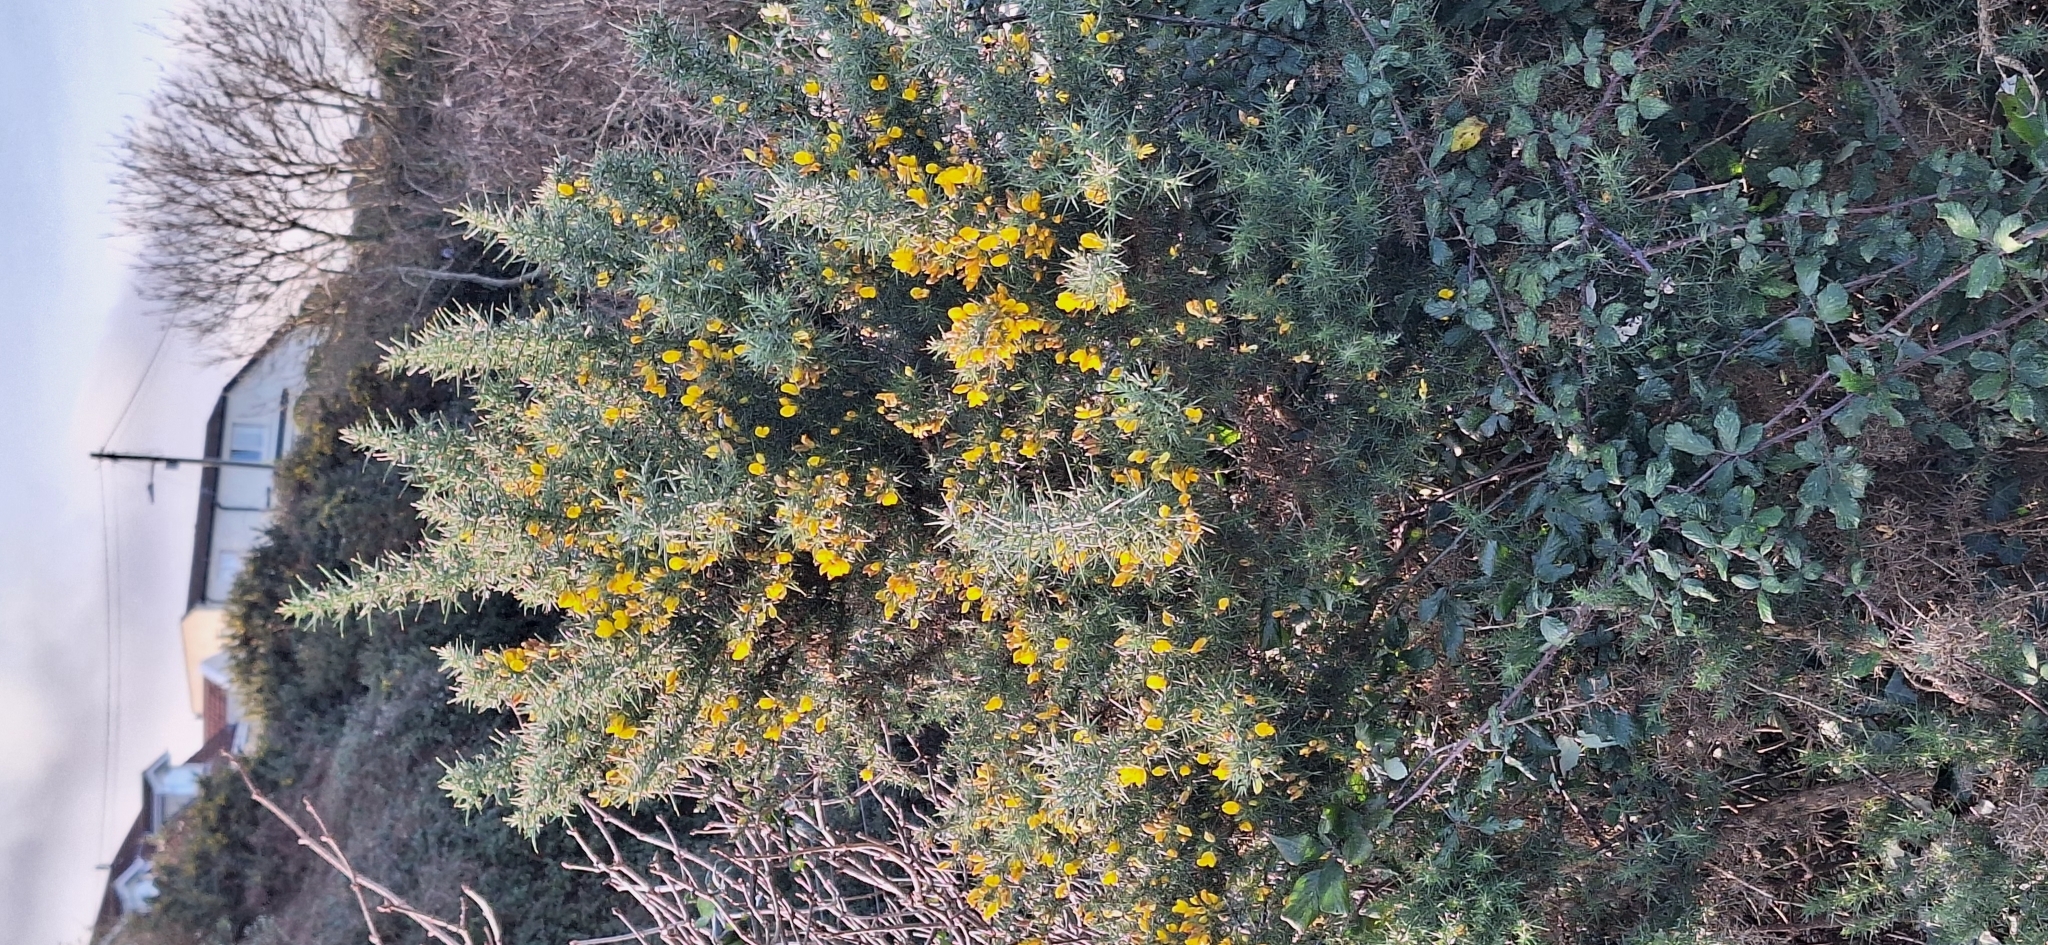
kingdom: Plantae
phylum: Tracheophyta
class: Magnoliopsida
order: Fabales
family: Fabaceae
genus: Ulex
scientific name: Ulex europaeus
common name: Common gorse
